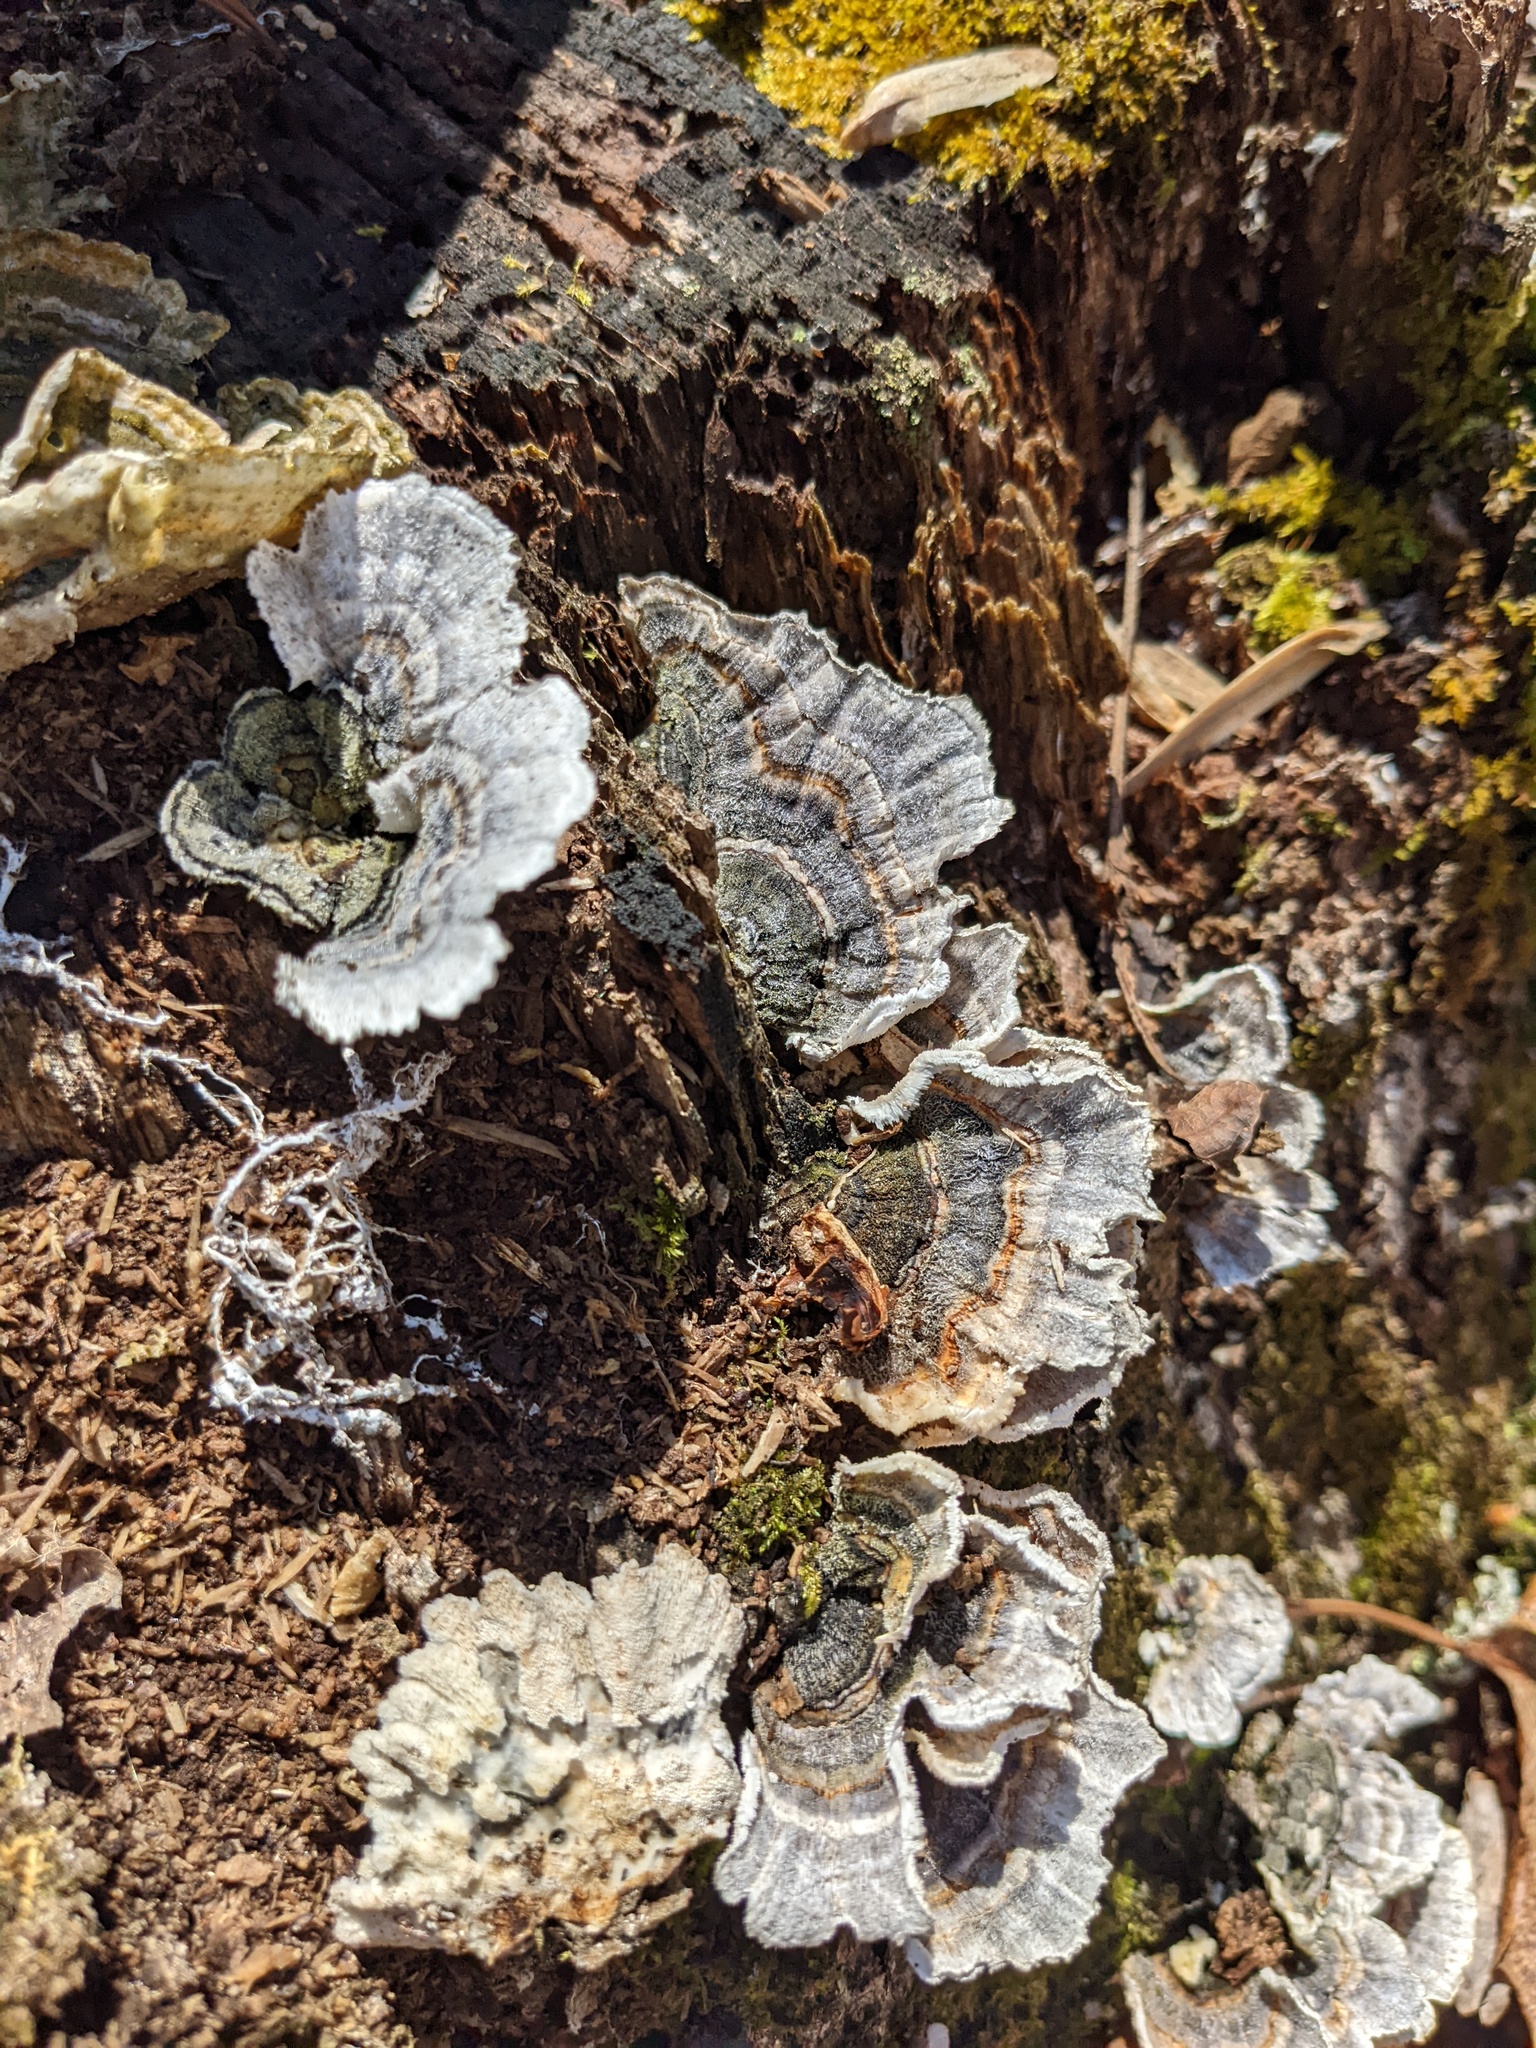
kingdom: Fungi
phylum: Basidiomycota
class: Agaricomycetes
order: Polyporales
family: Polyporaceae
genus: Trametes
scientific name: Trametes versicolor
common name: Turkeytail
